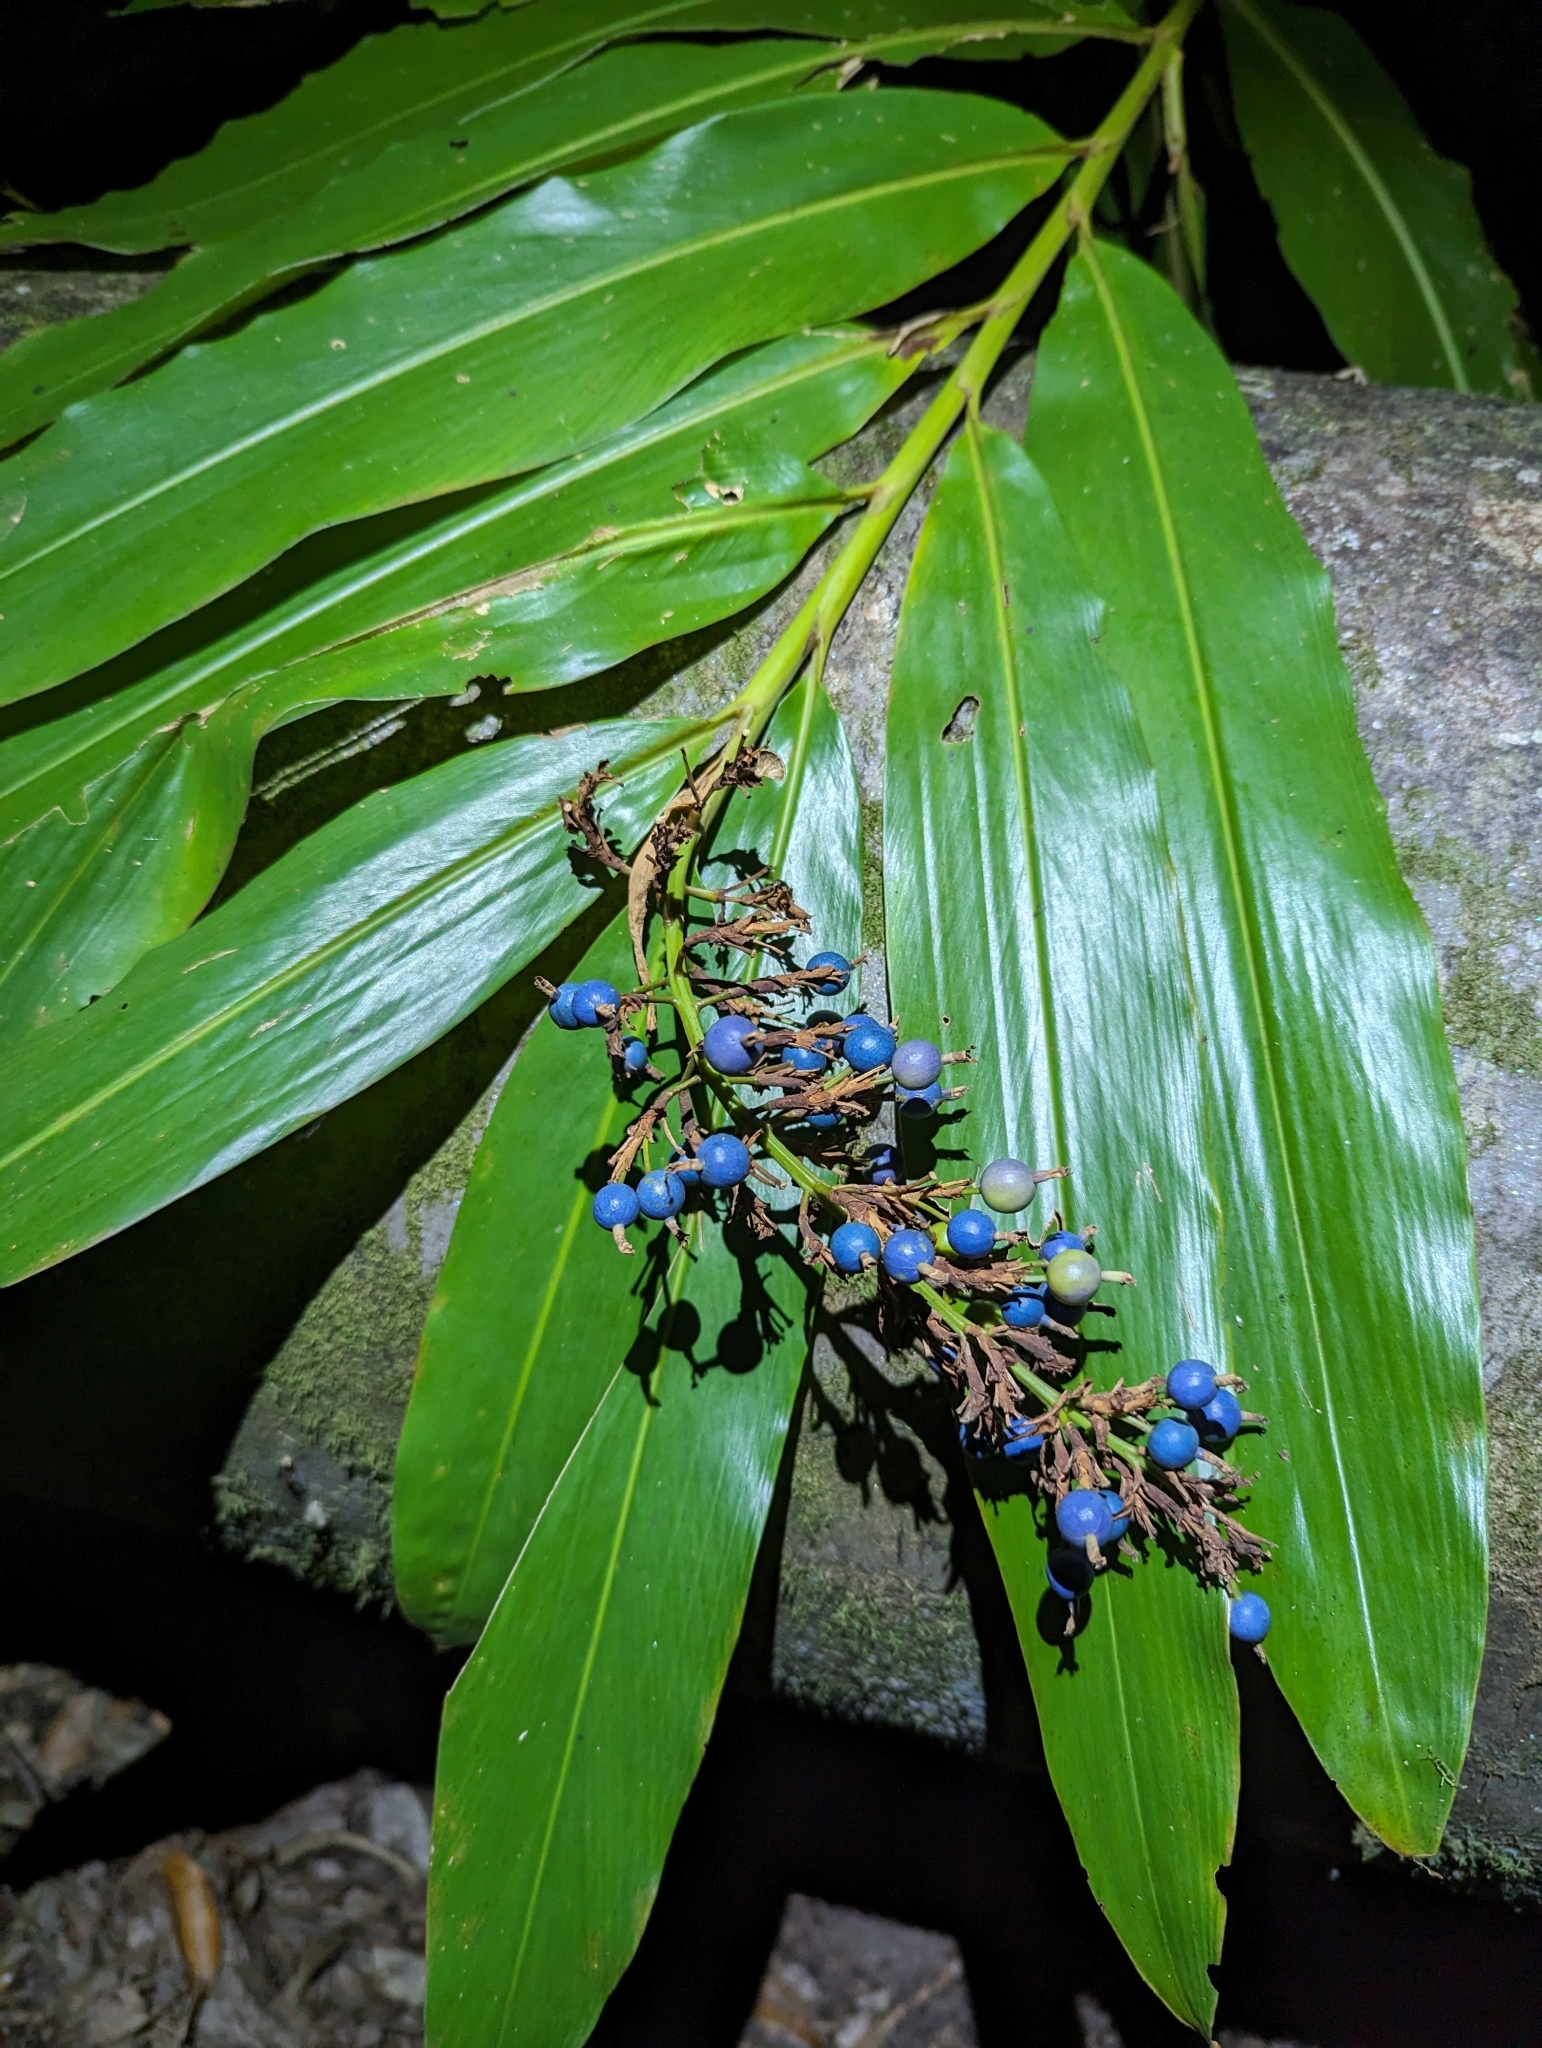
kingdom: Plantae
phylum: Tracheophyta
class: Liliopsida
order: Zingiberales
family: Zingiberaceae
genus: Alpinia
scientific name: Alpinia caerulea
